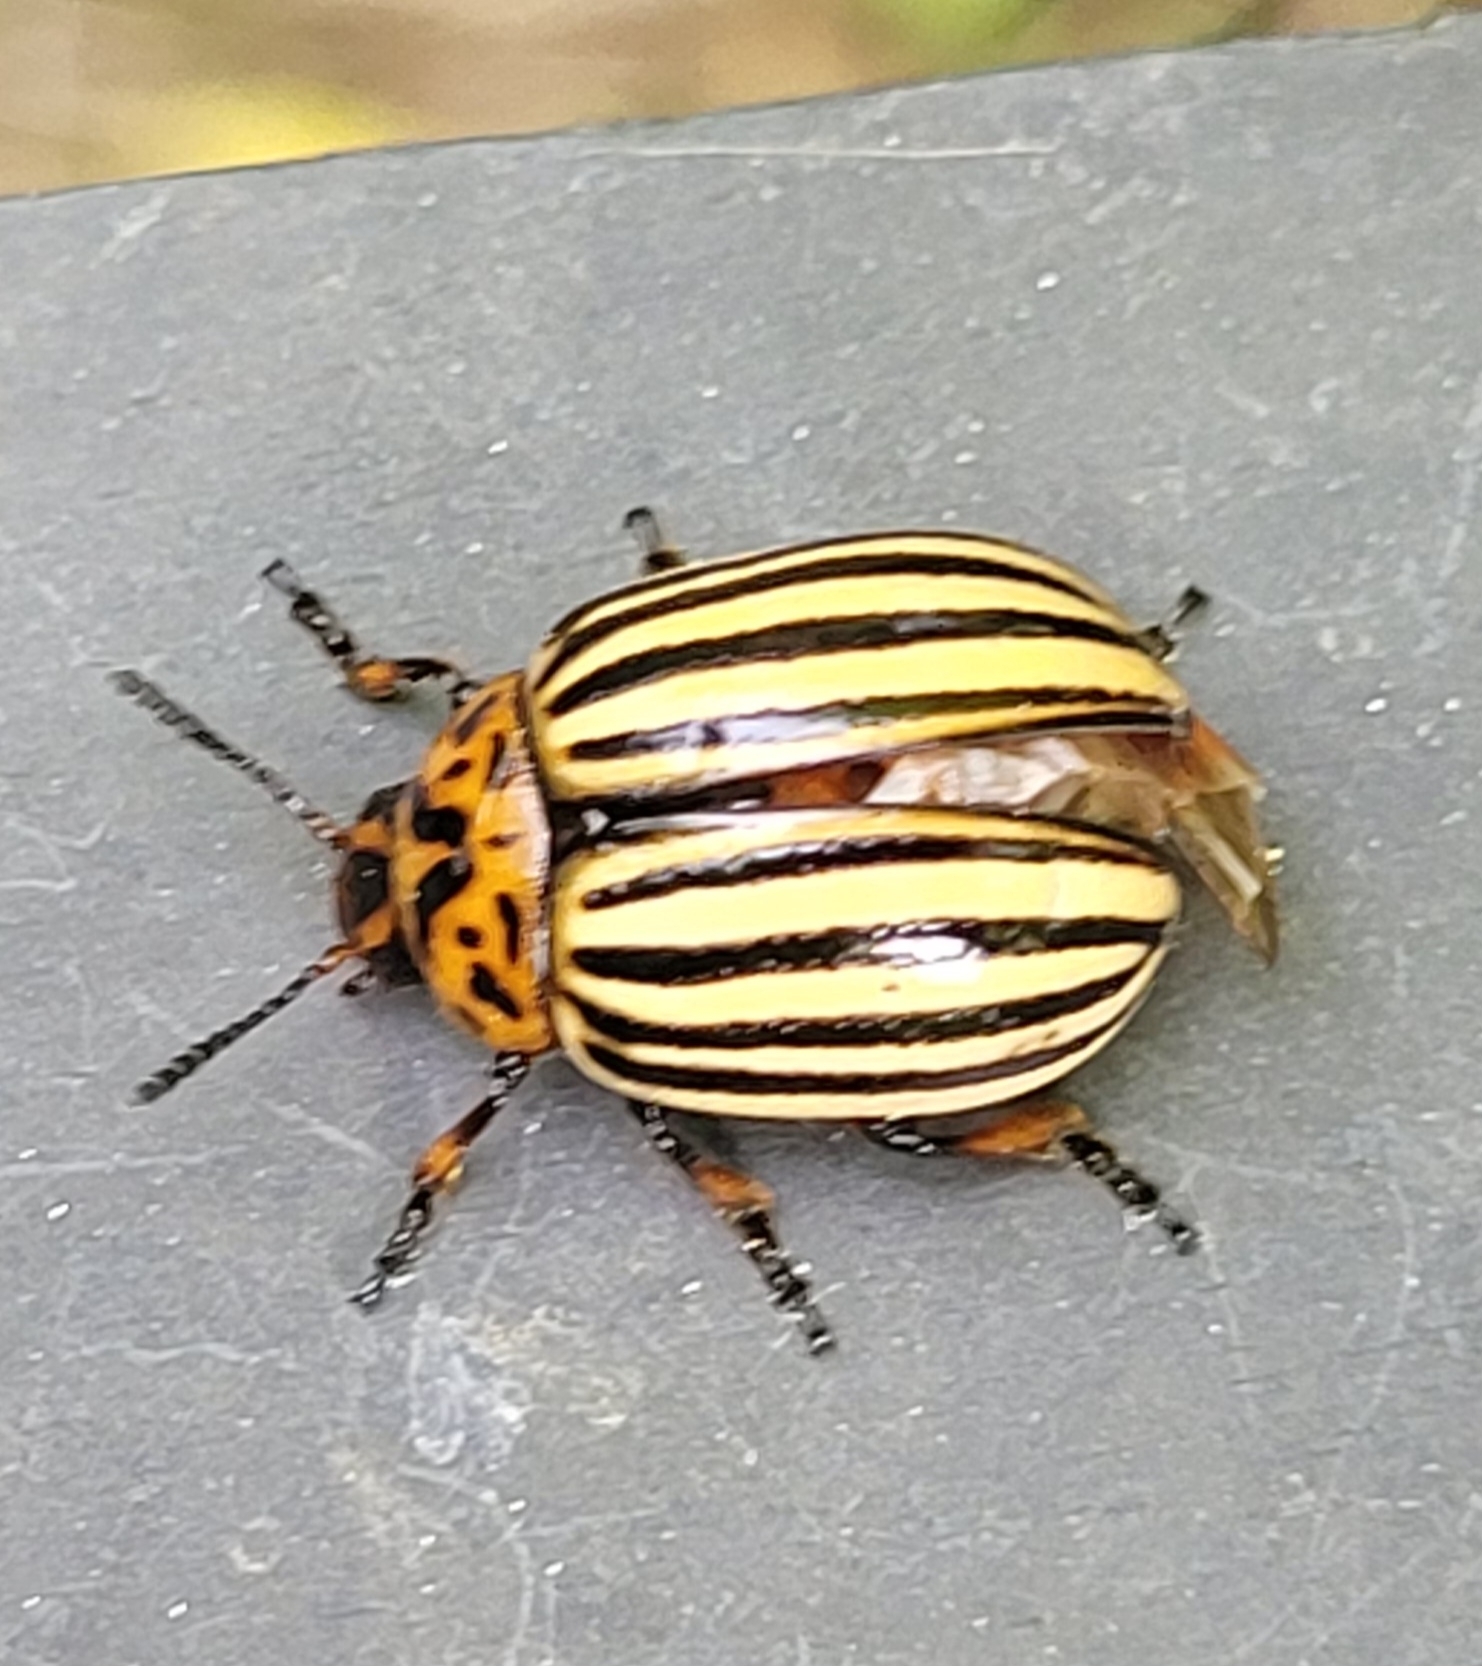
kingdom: Animalia
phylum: Arthropoda
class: Insecta
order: Coleoptera
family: Chrysomelidae
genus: Leptinotarsa
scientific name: Leptinotarsa decemlineata
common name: Colorado potato beetle
